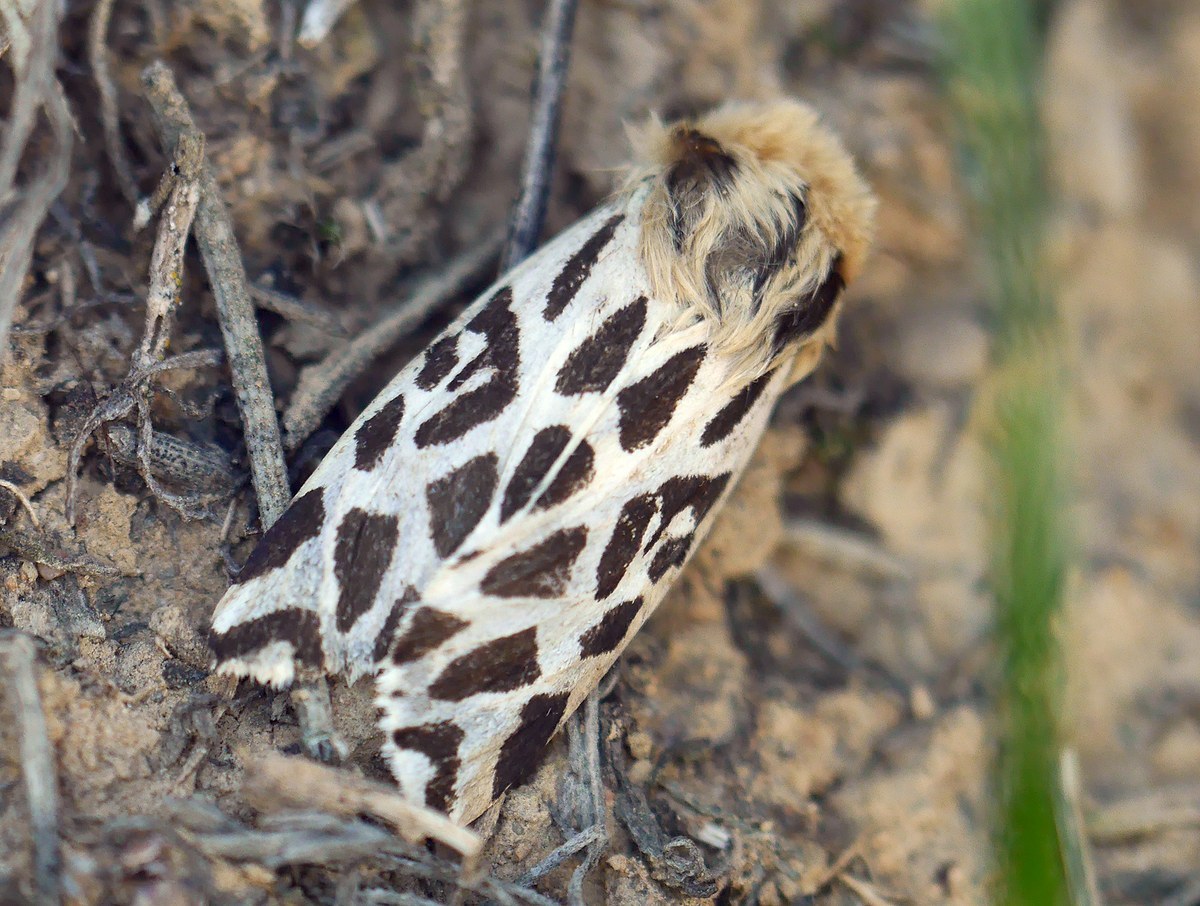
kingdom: Animalia
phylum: Arthropoda
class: Insecta
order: Lepidoptera
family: Erebidae
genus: Cymbalophora
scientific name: Cymbalophora rivularis
